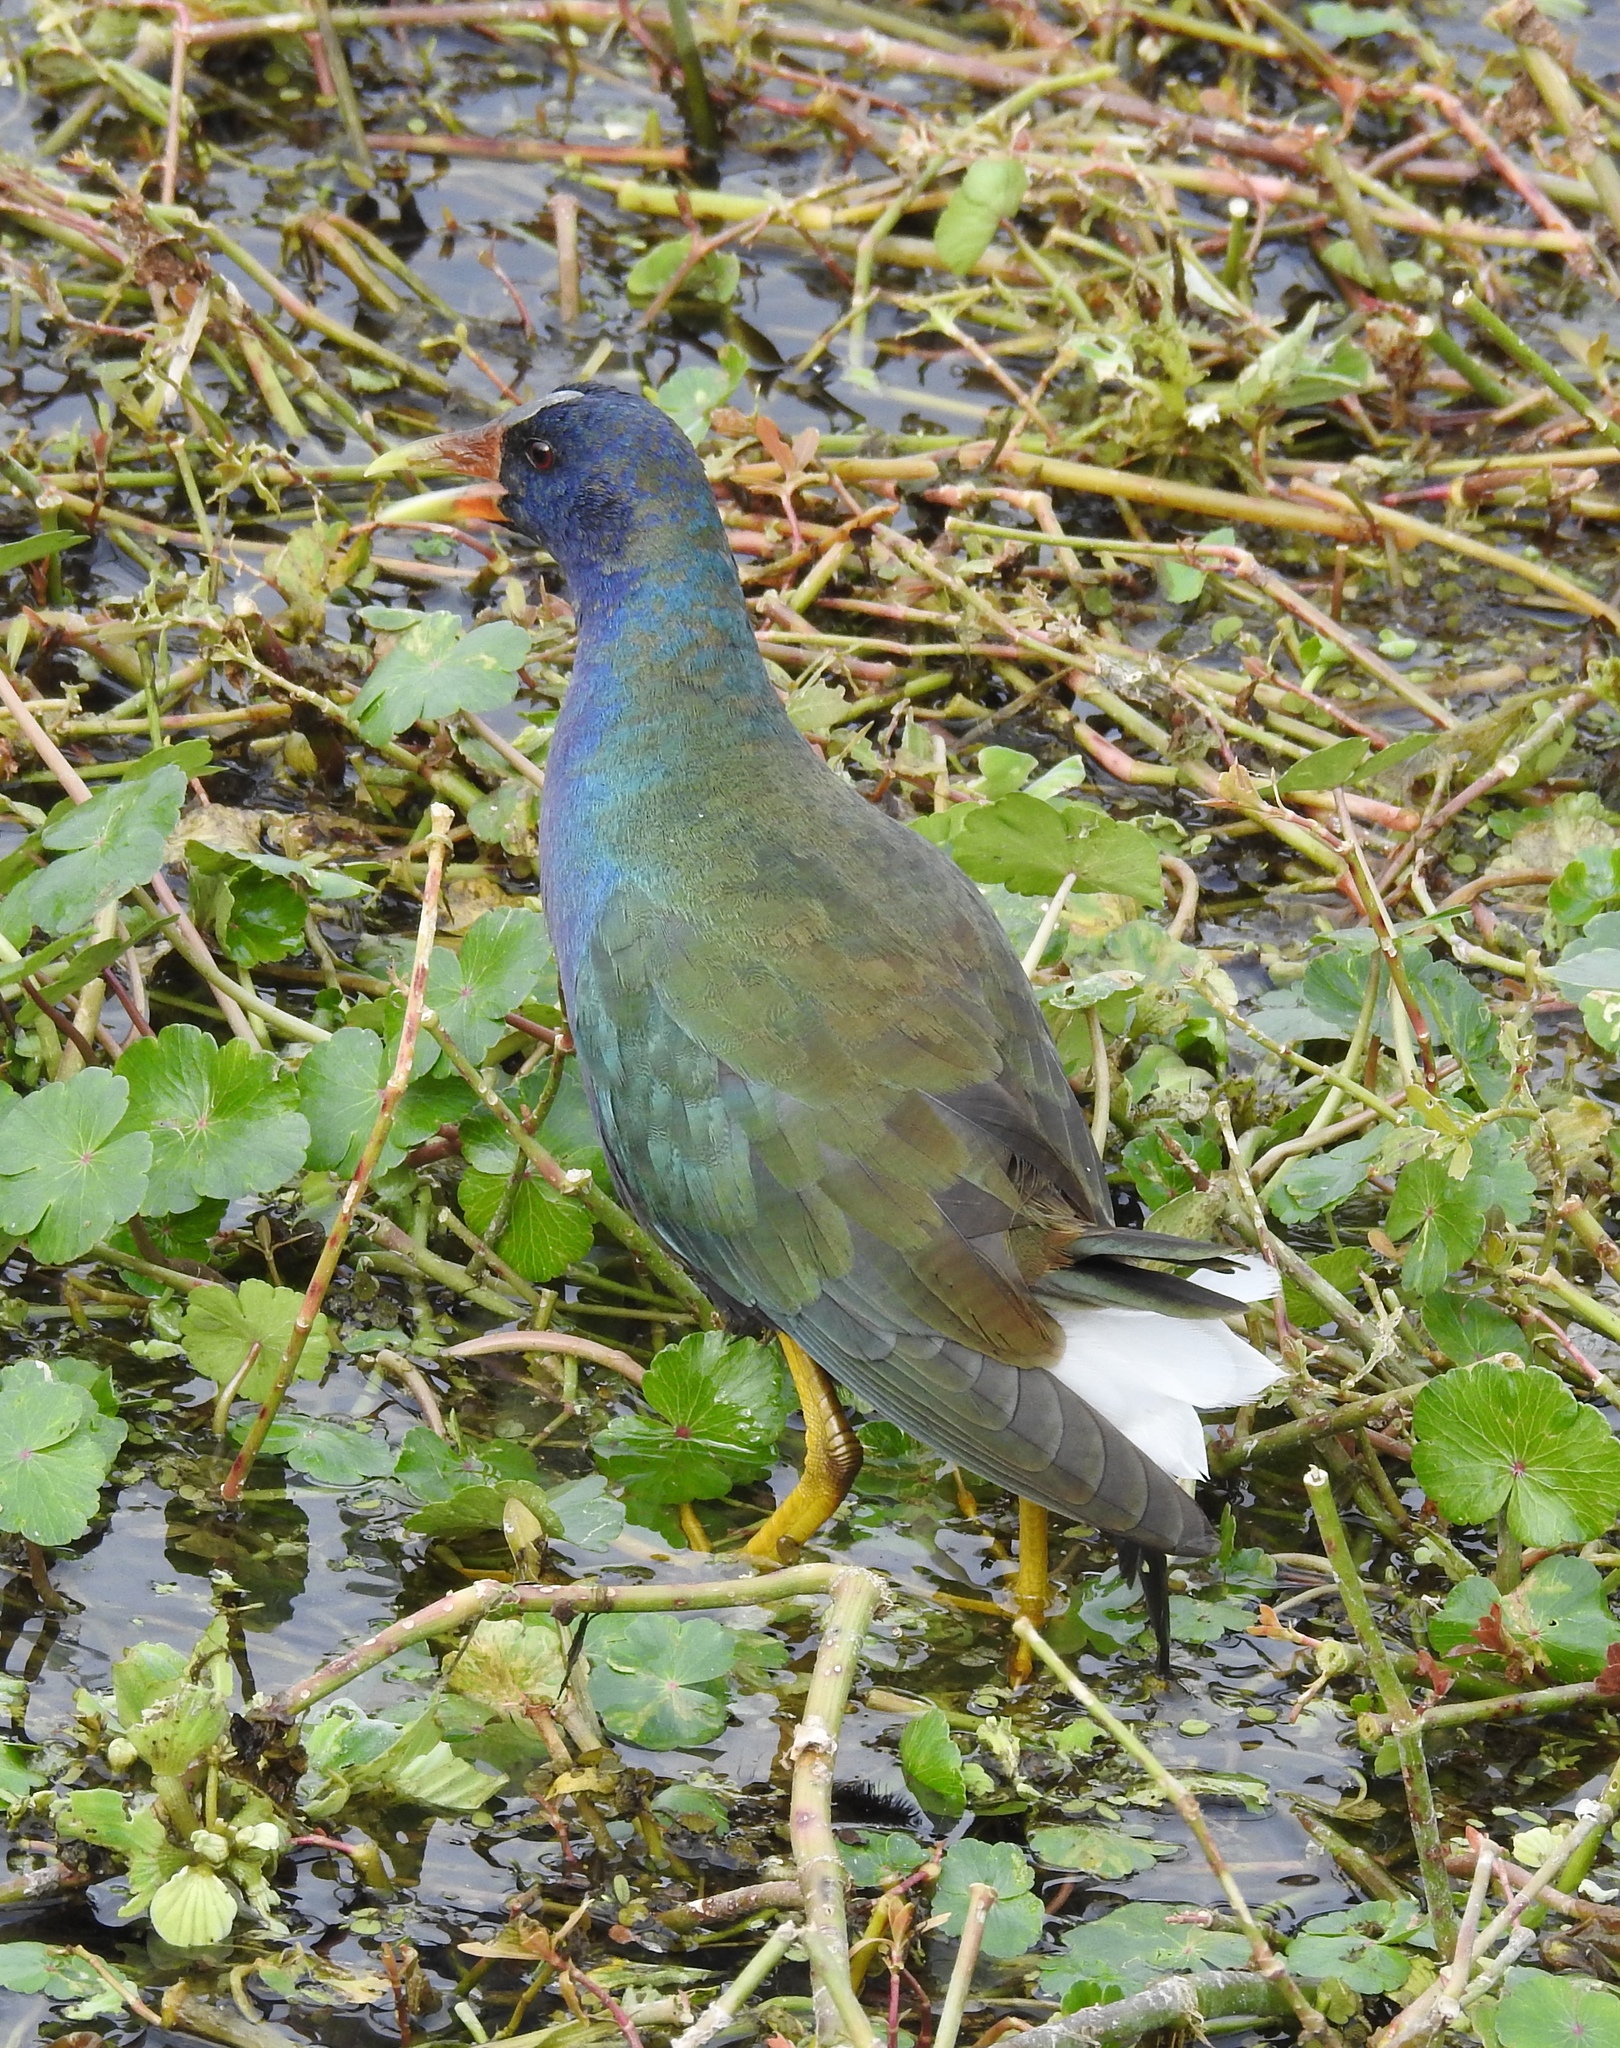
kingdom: Animalia
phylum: Chordata
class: Aves
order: Gruiformes
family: Rallidae
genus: Porphyrio
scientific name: Porphyrio martinica
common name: Purple gallinule
